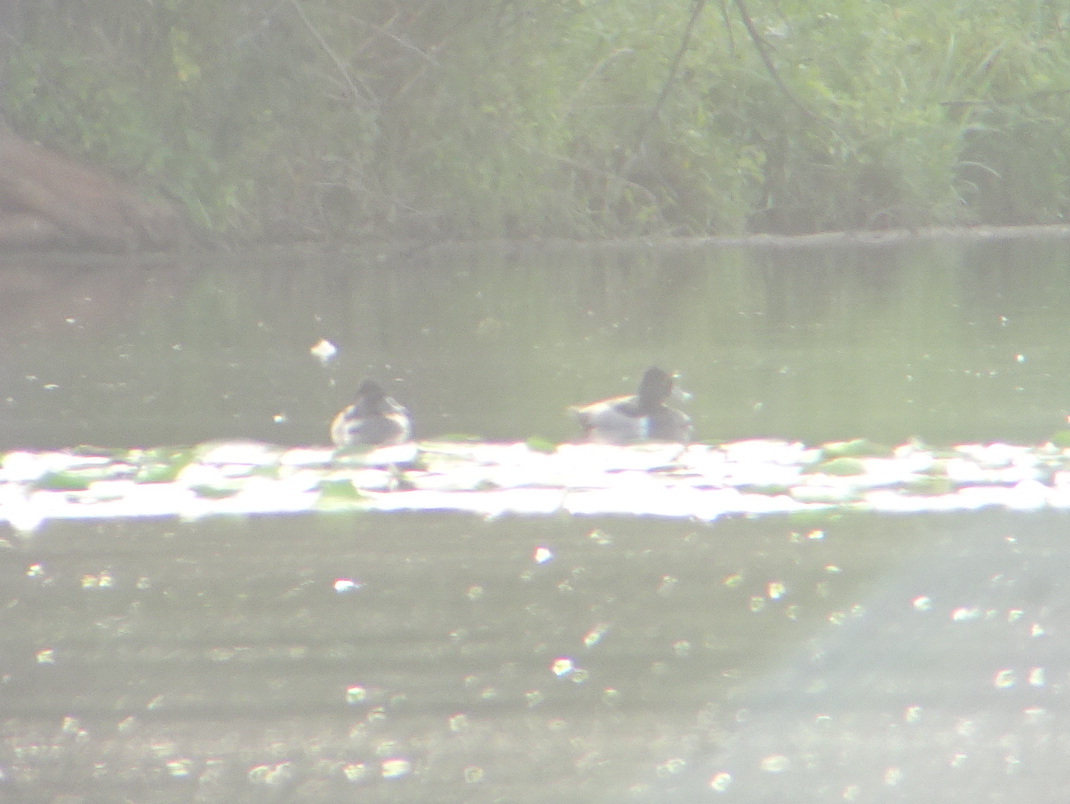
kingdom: Animalia
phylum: Chordata
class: Aves
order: Anseriformes
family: Anatidae
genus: Aythya
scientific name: Aythya collaris
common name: Ring-necked duck
